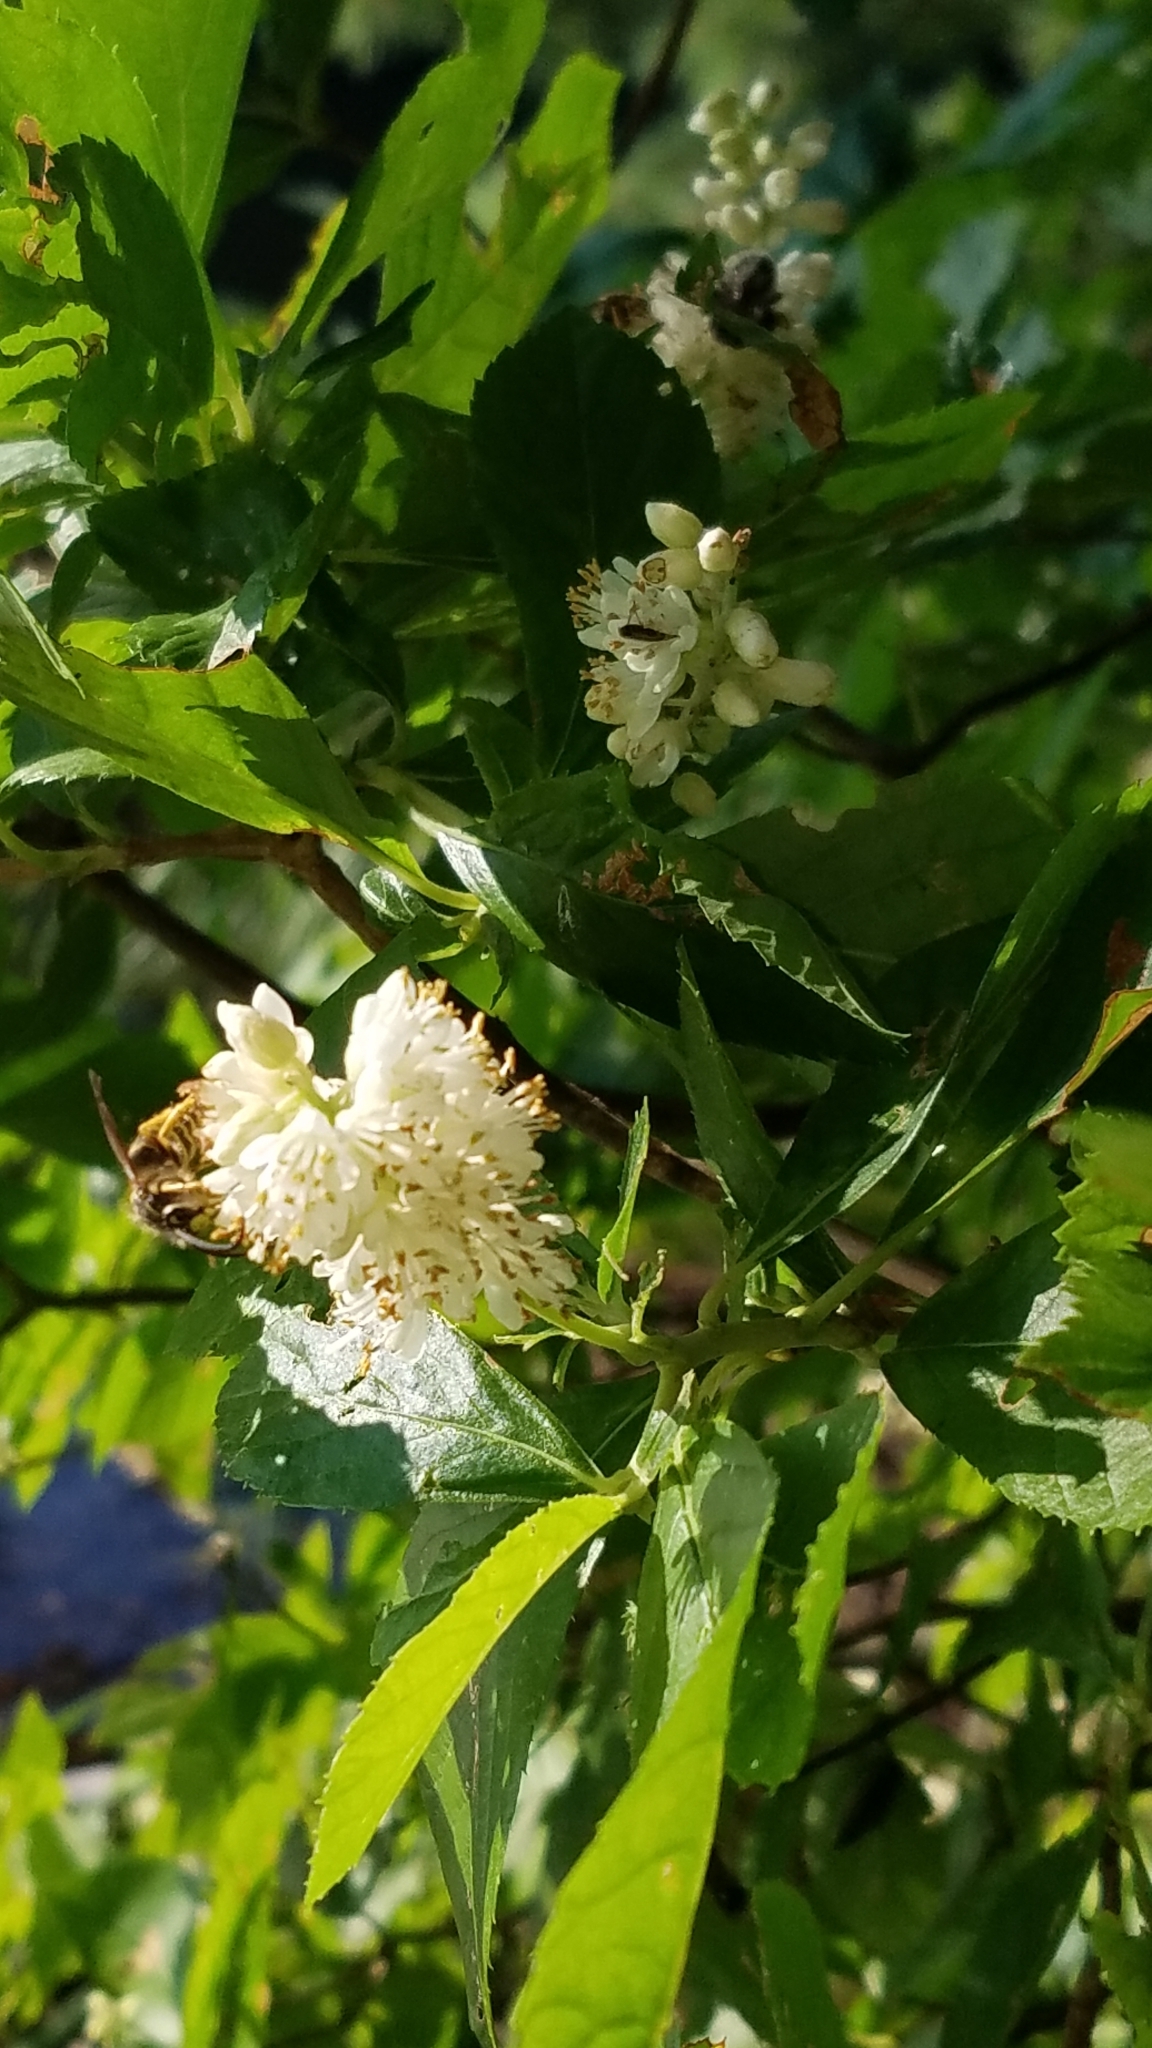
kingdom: Plantae
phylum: Tracheophyta
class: Magnoliopsida
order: Ericales
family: Clethraceae
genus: Clethra
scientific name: Clethra alnifolia
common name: Sweet pepperbush
